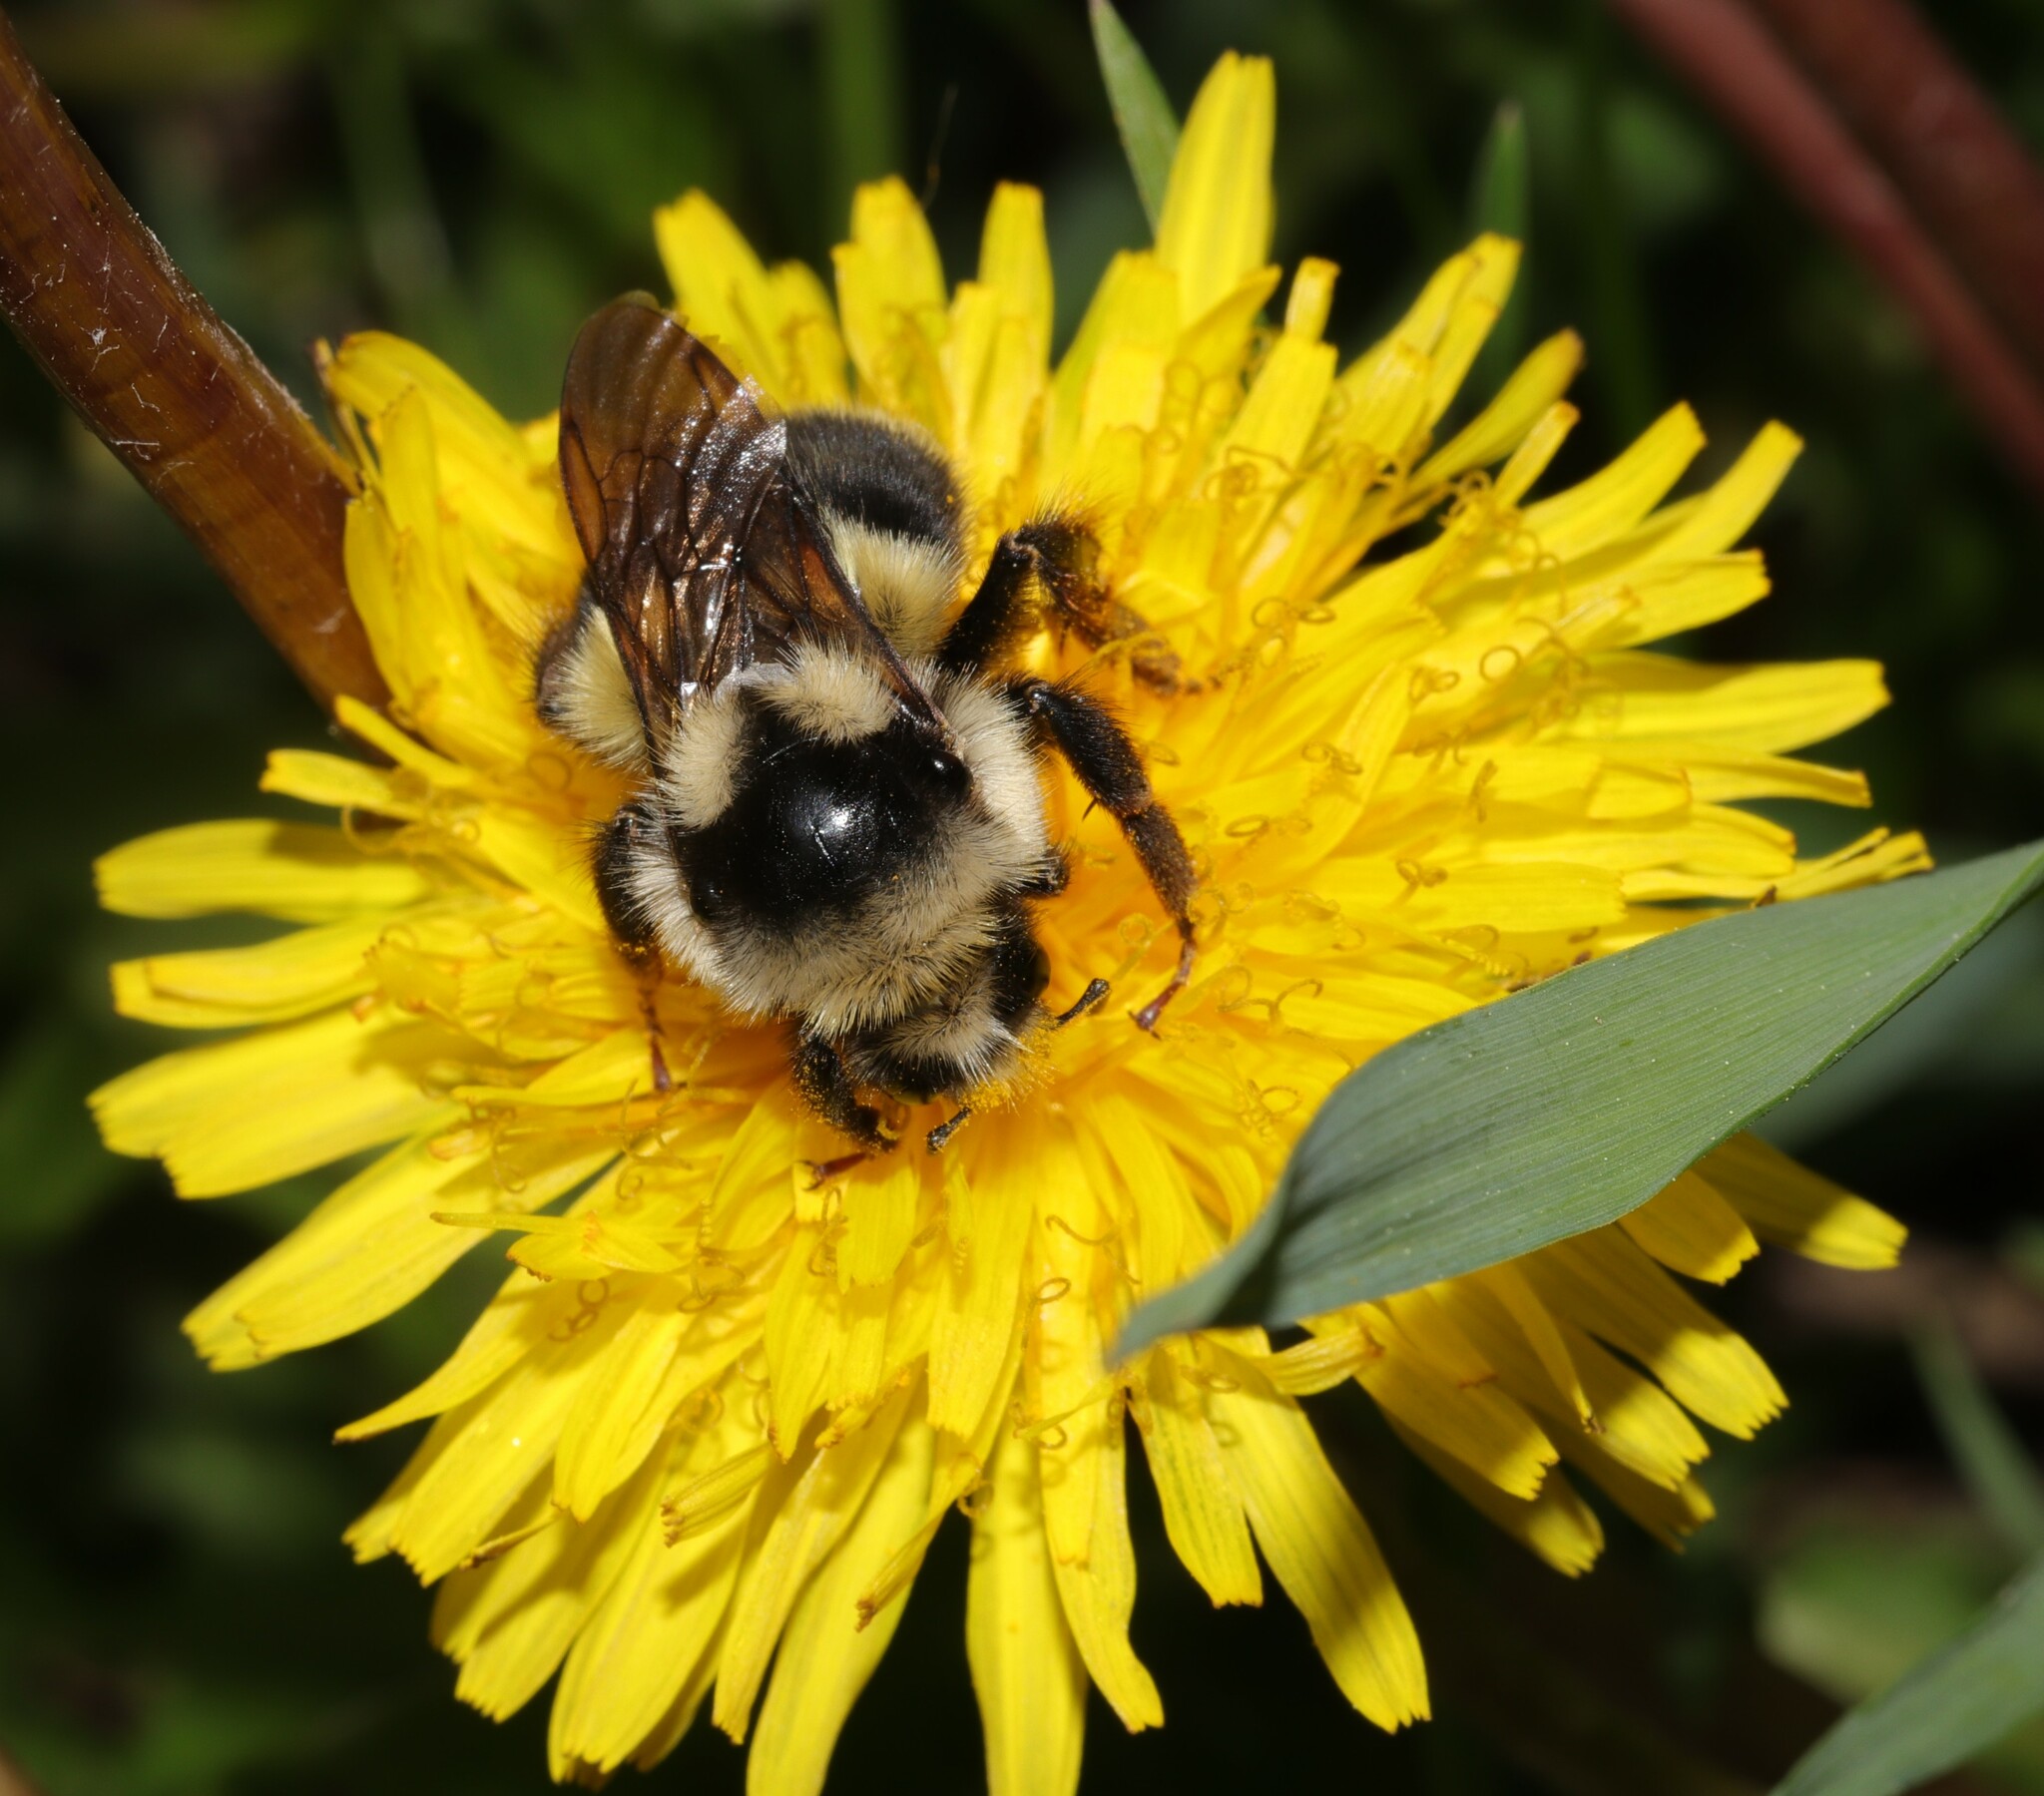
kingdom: Animalia
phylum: Arthropoda
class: Insecta
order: Hymenoptera
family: Apidae
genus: Bombus
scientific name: Bombus vancouverensis
